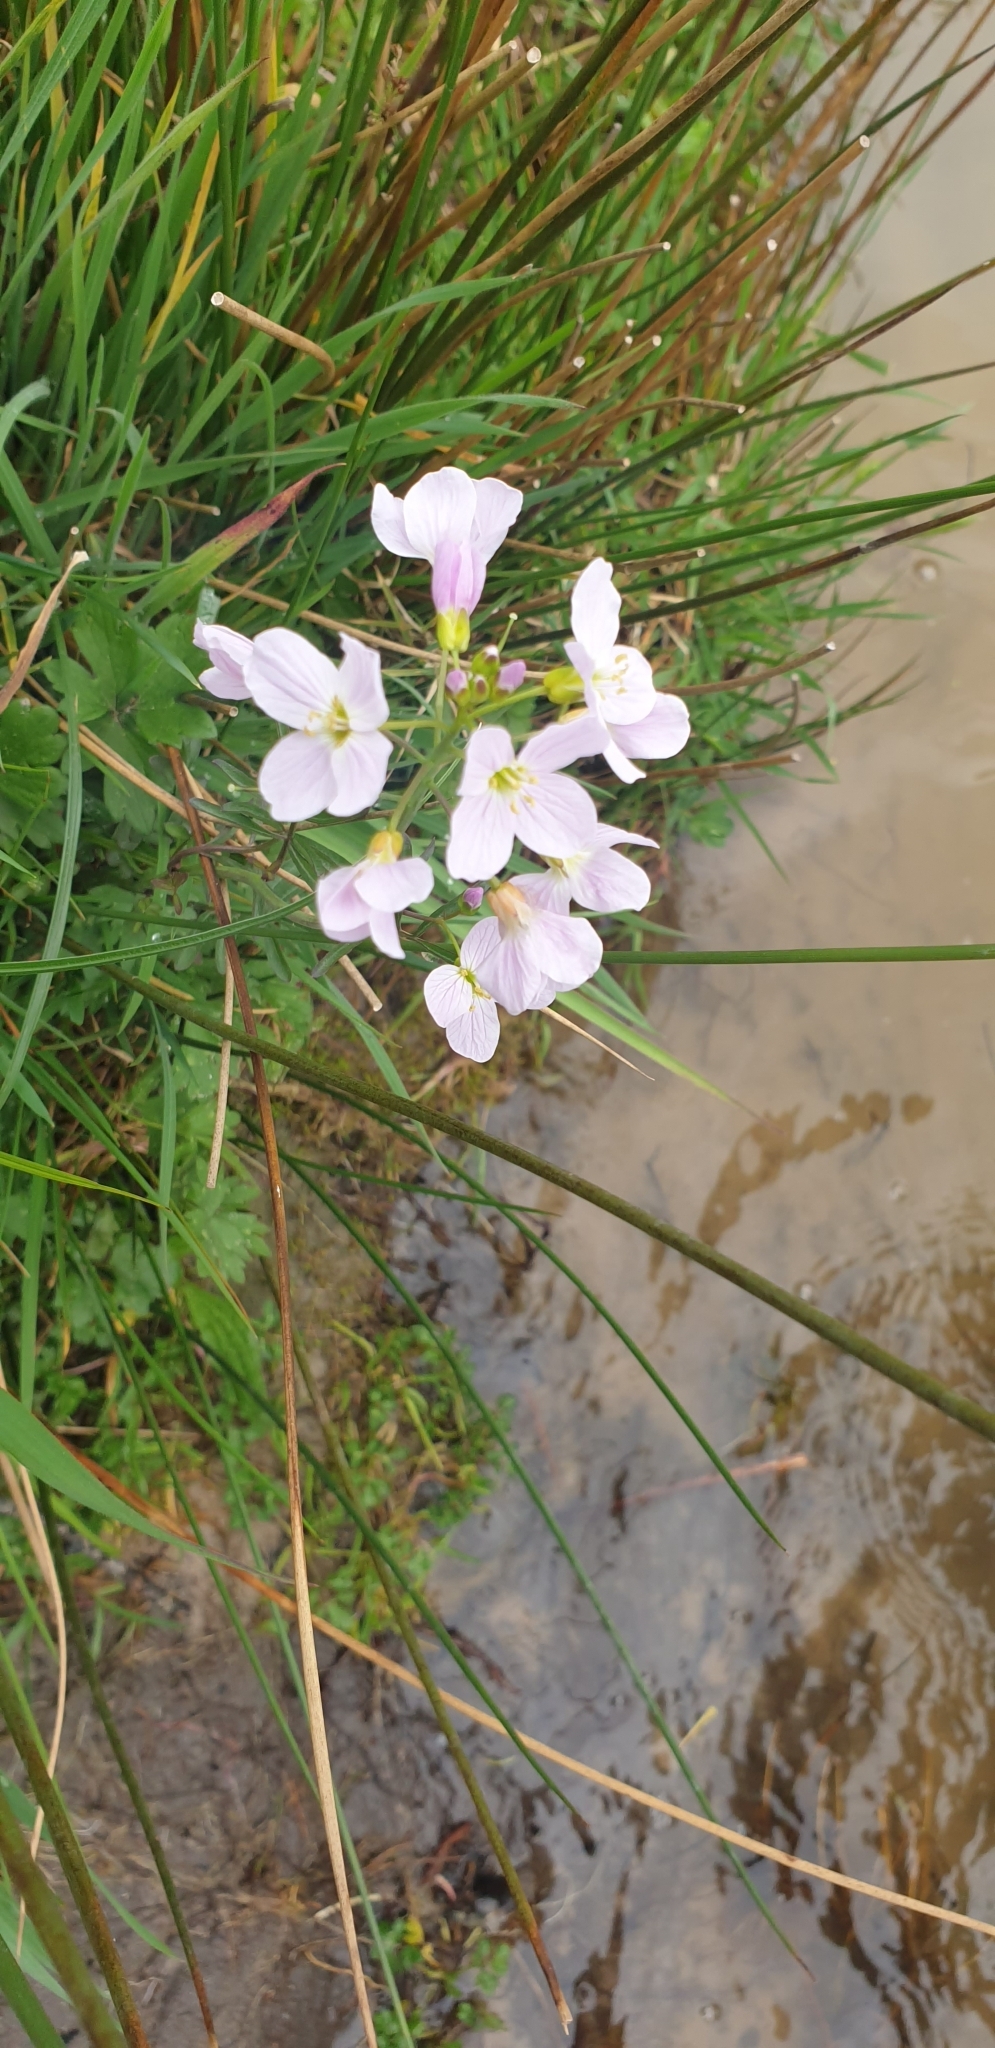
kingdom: Plantae
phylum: Tracheophyta
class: Magnoliopsida
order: Brassicales
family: Brassicaceae
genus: Cardamine
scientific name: Cardamine pratensis
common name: Cuckoo flower
